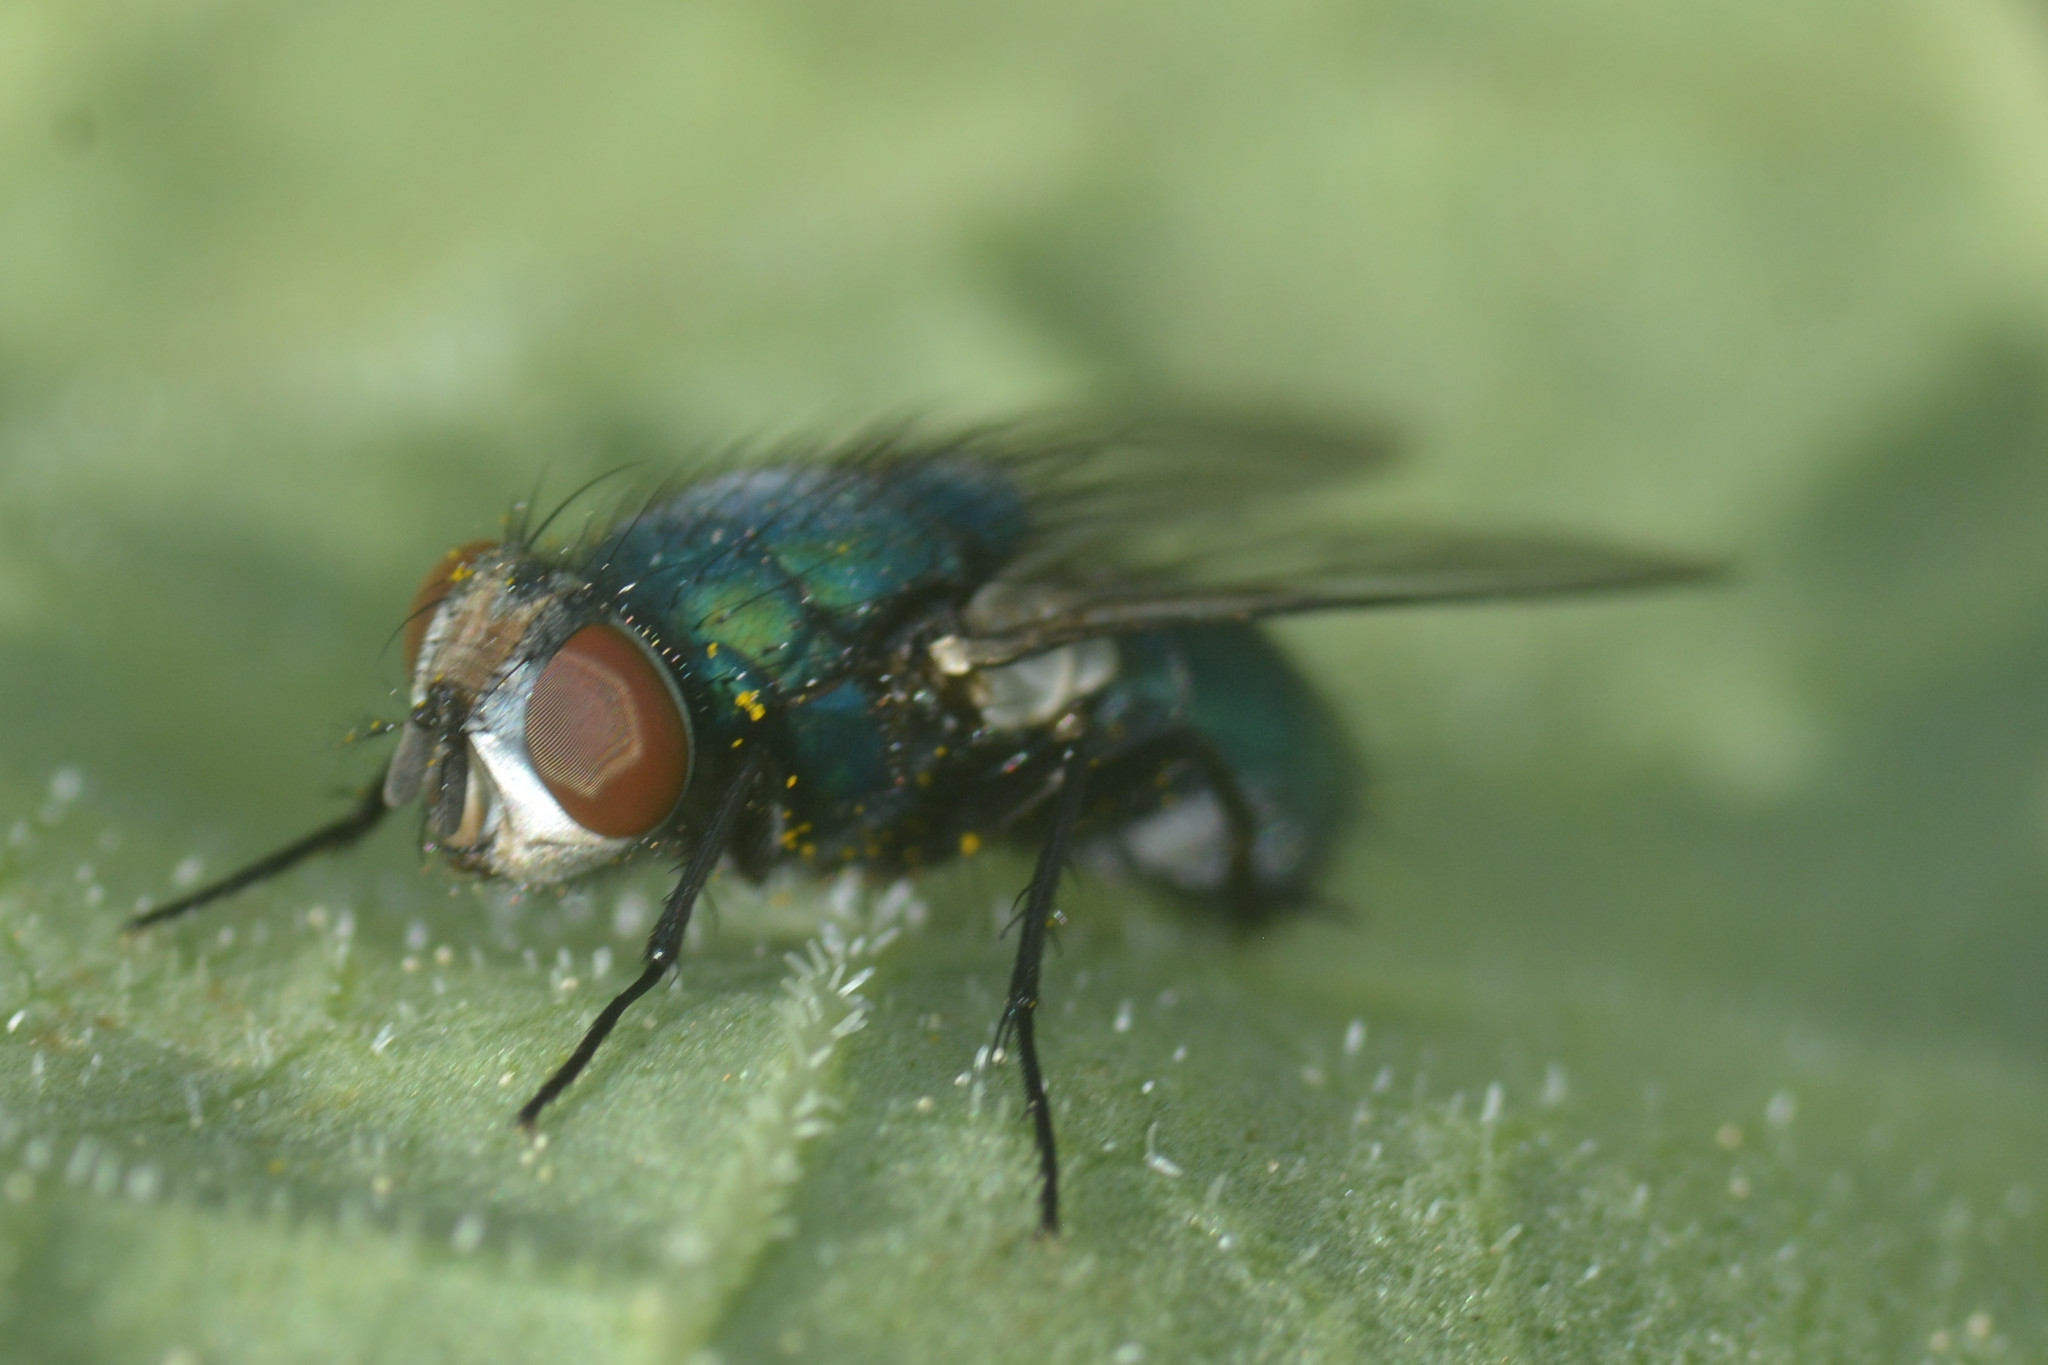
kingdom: Animalia
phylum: Arthropoda
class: Insecta
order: Diptera
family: Calliphoridae
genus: Lucilia
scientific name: Lucilia sericata
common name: Blow fly
